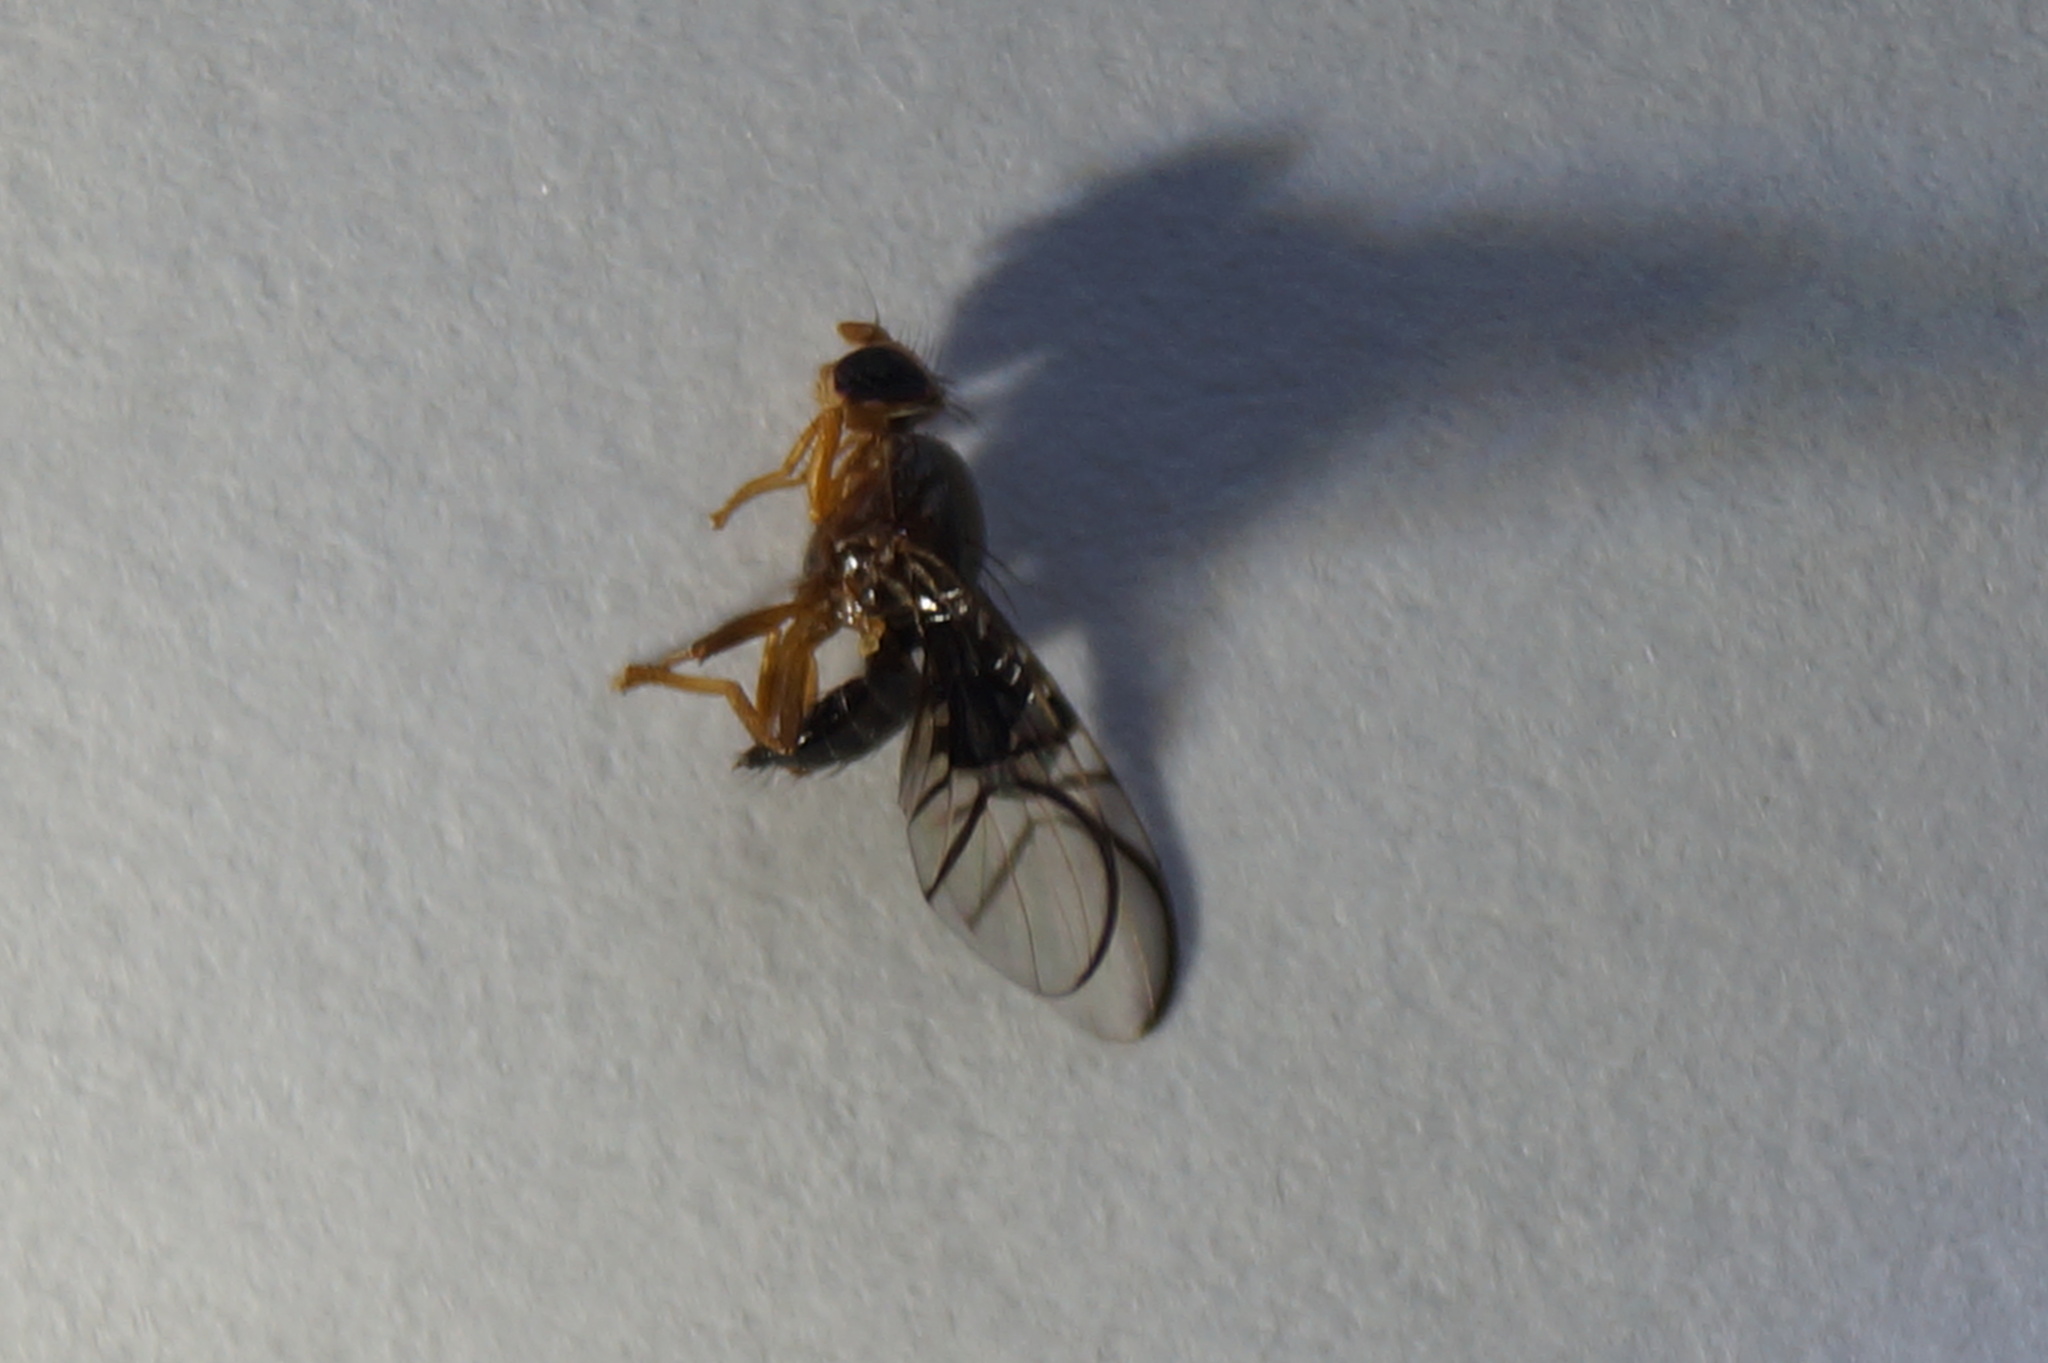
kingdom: Animalia
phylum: Arthropoda
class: Insecta
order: Diptera
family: Tephritidae
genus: Anomoia
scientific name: Anomoia purmunda
